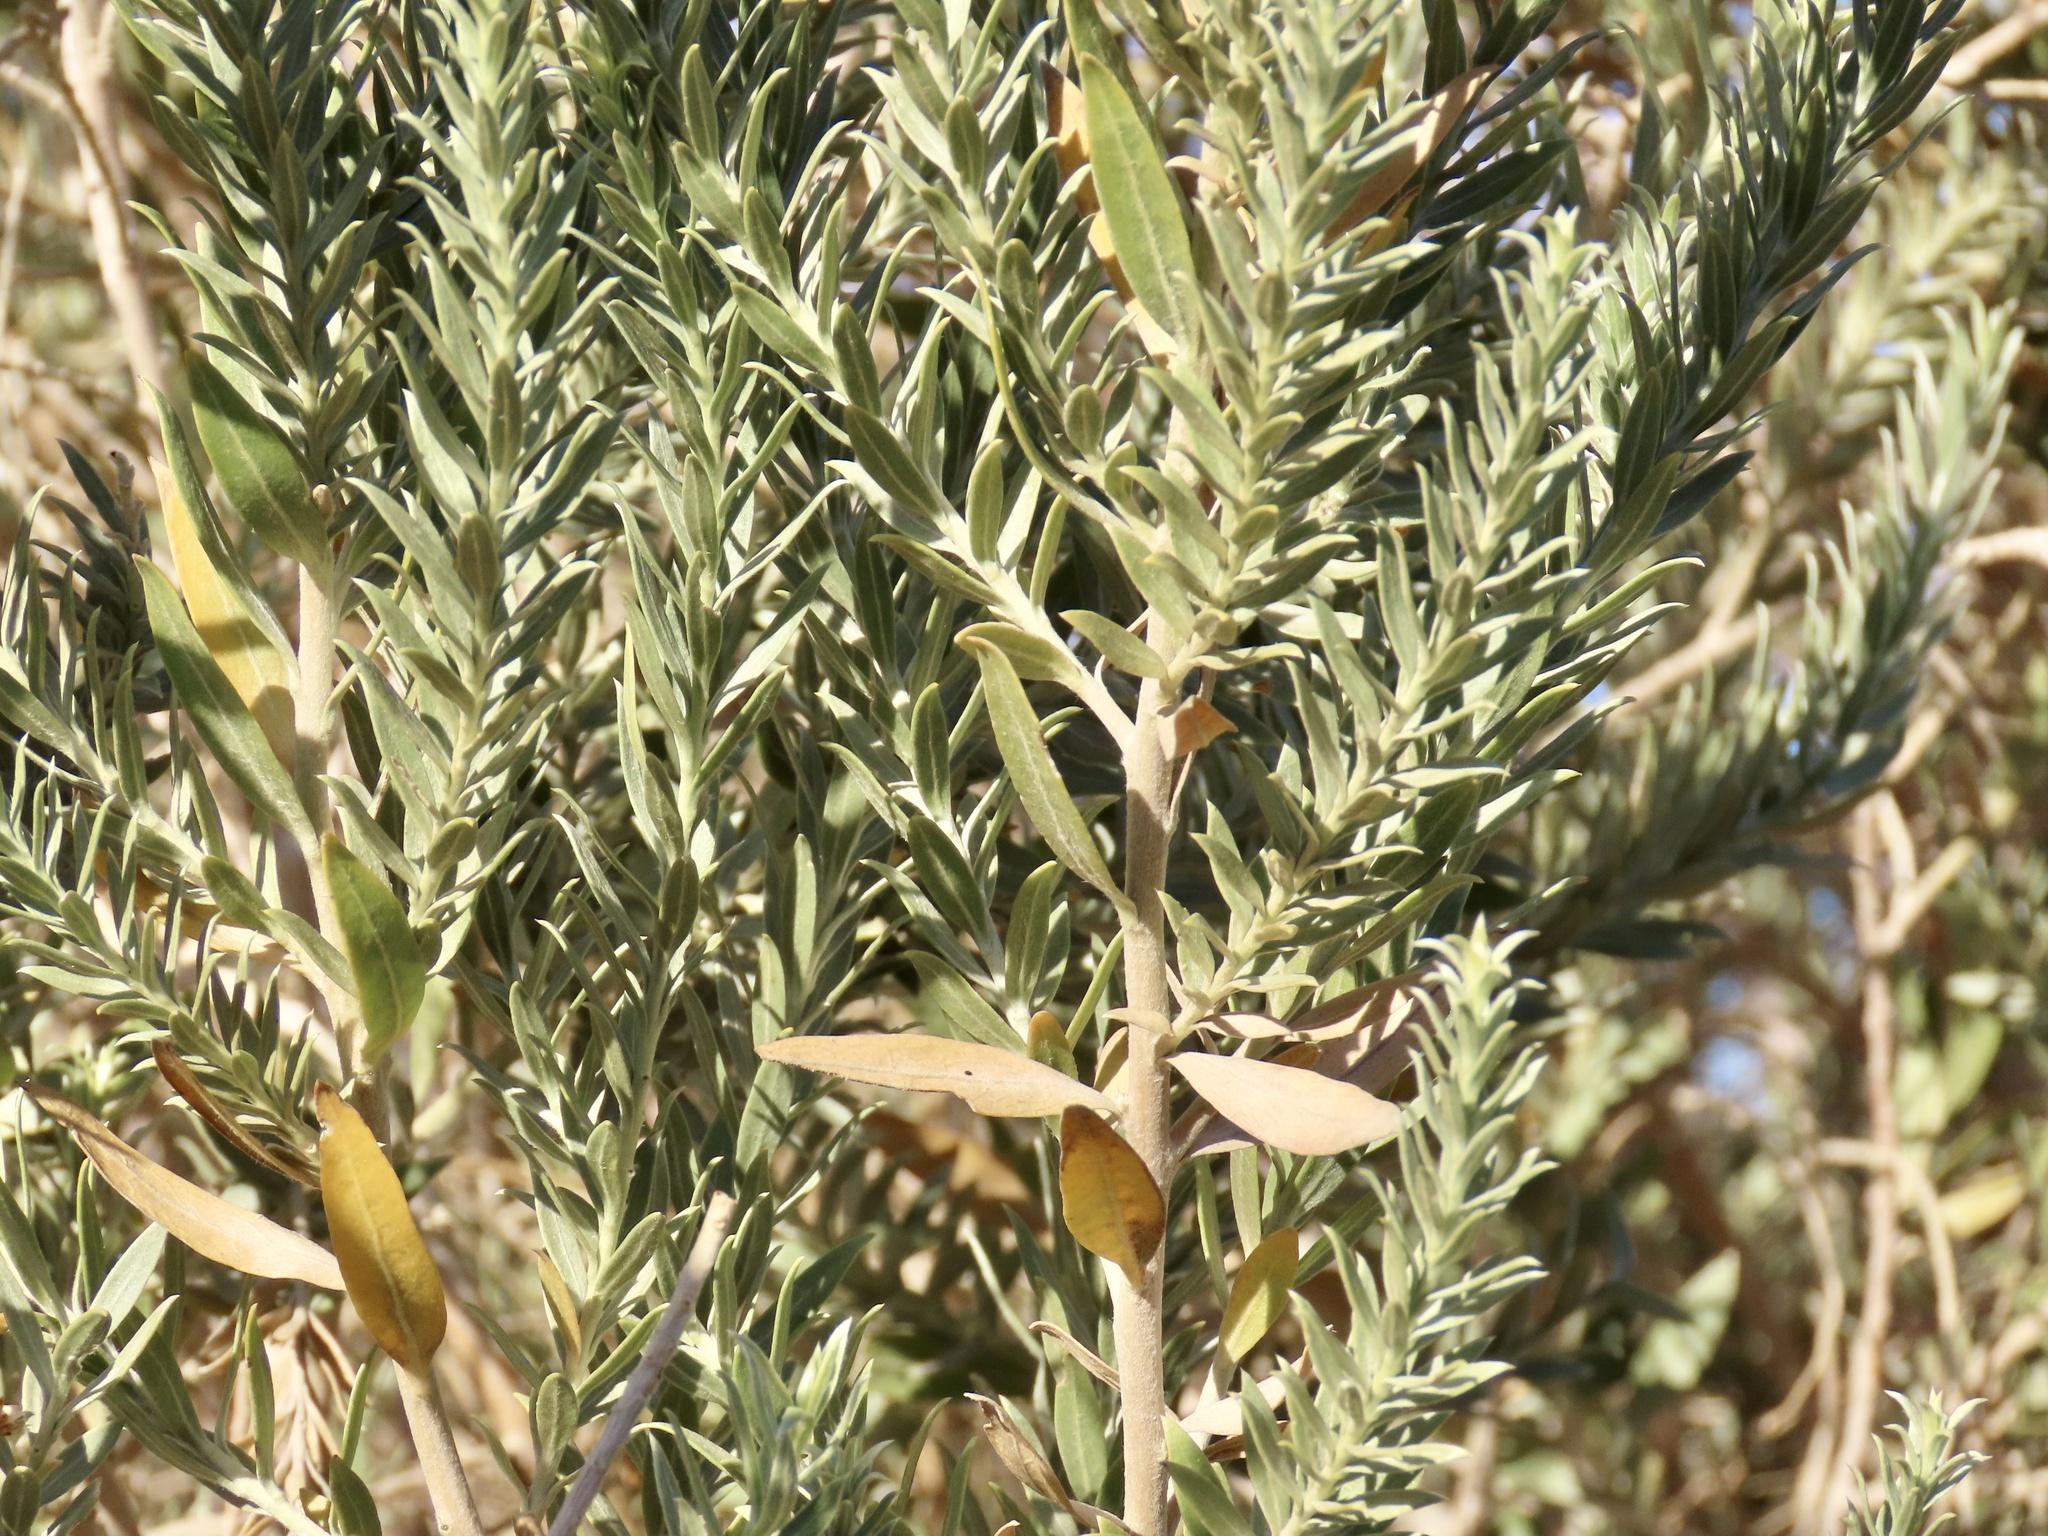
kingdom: Plantae
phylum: Tracheophyta
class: Magnoliopsida
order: Asterales
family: Asteraceae
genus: Pluchea
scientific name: Pluchea sericea
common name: Arrow-weed
